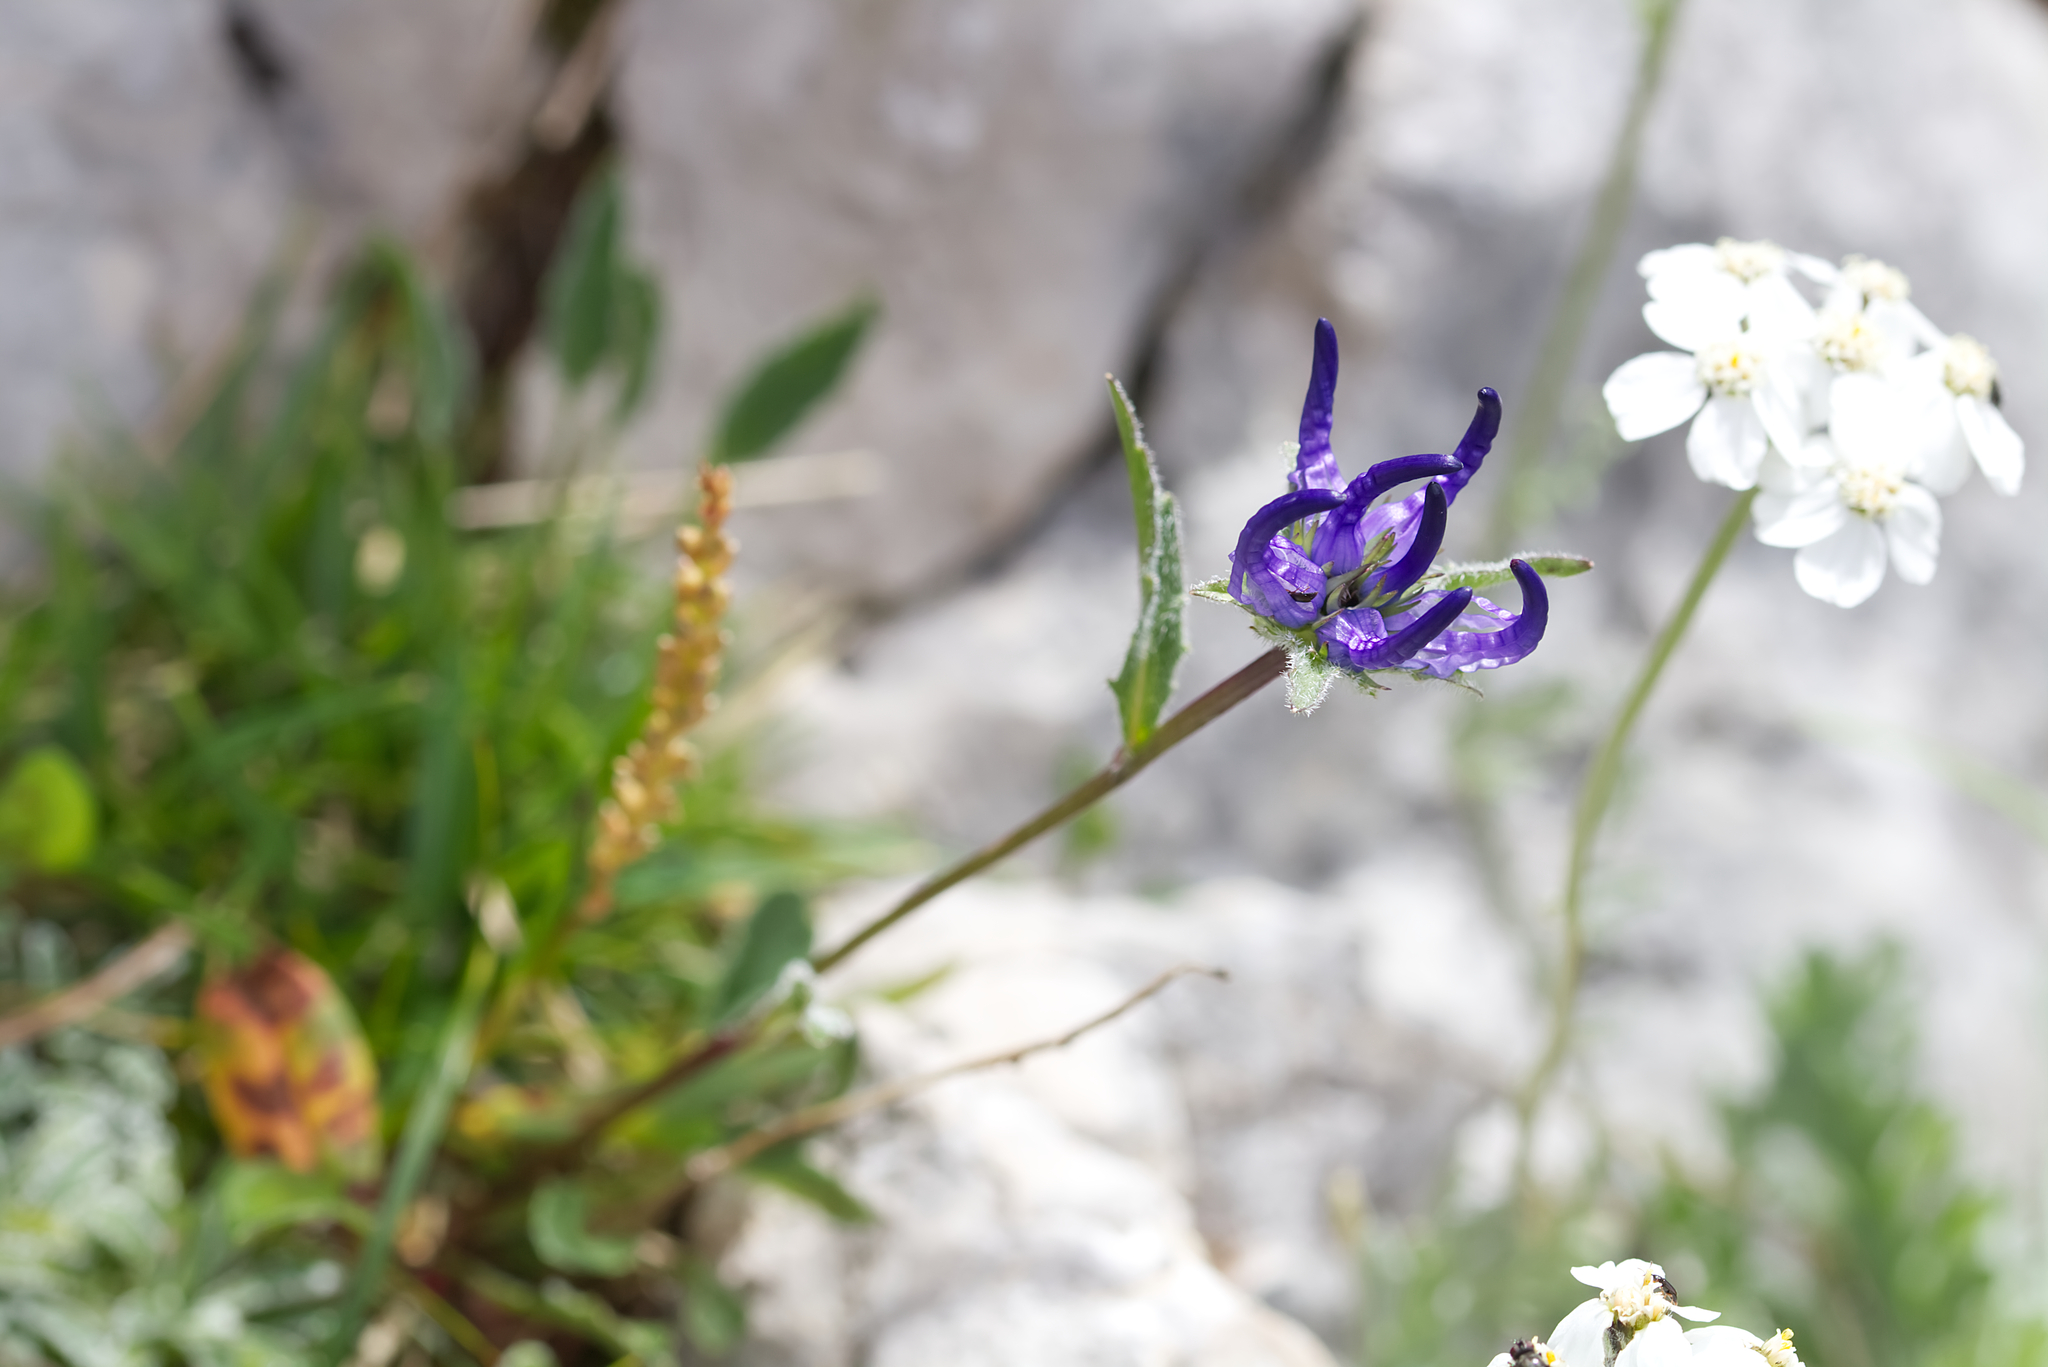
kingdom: Plantae
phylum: Tracheophyta
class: Magnoliopsida
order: Asterales
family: Campanulaceae
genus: Phyteuma
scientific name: Phyteuma sieberi
